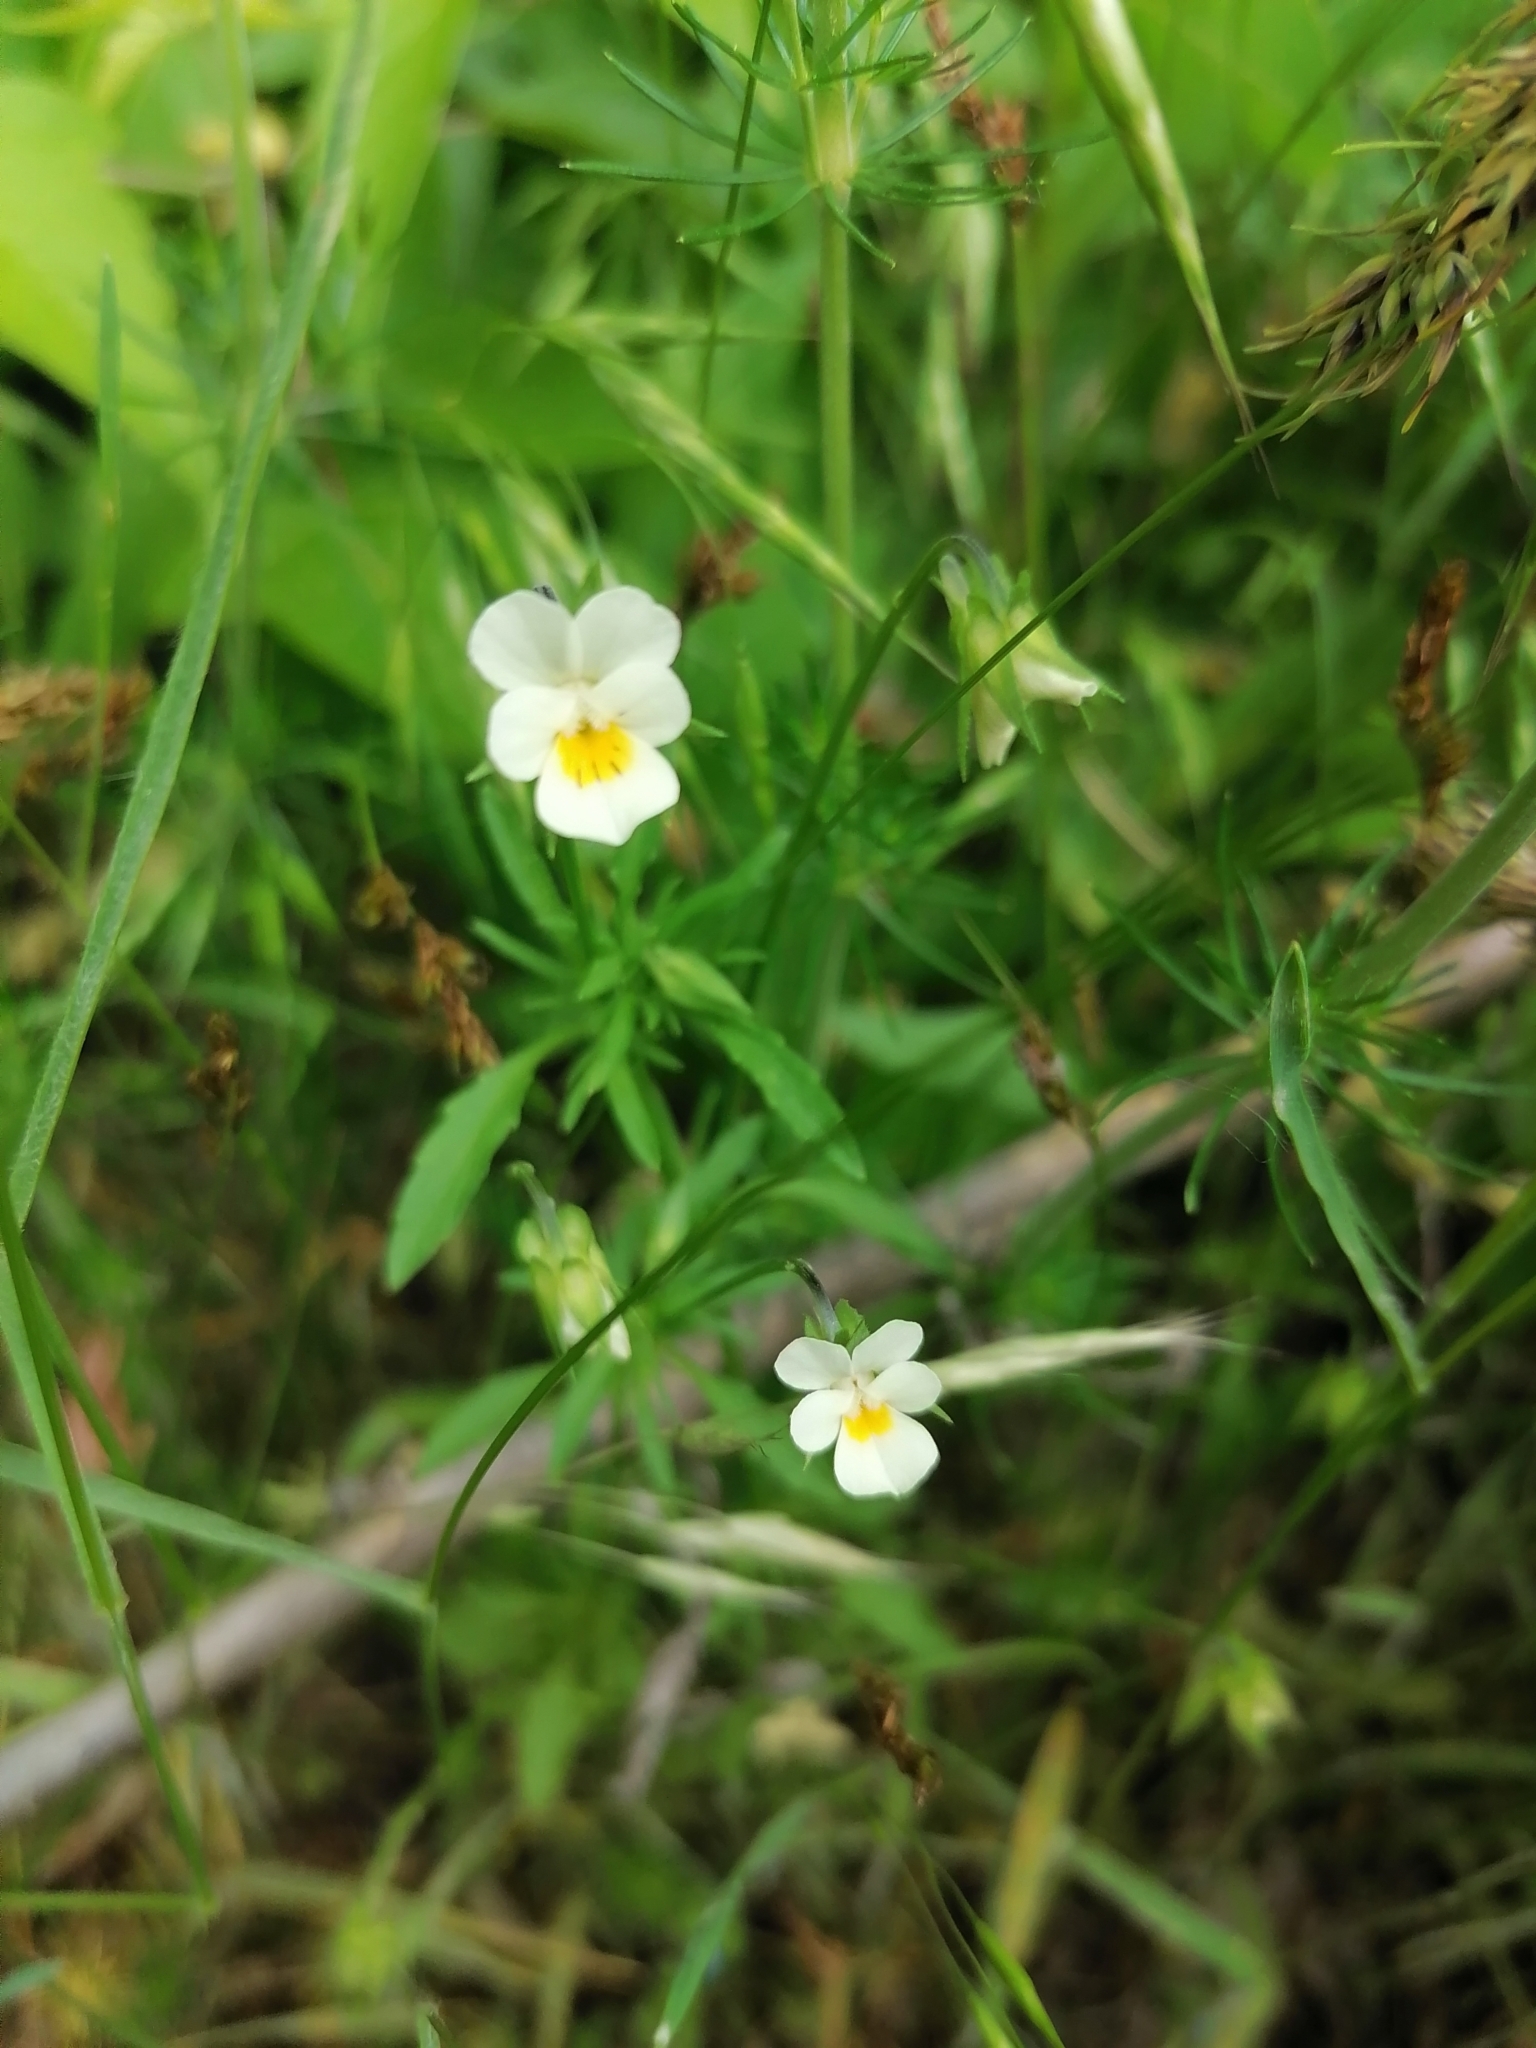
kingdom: Plantae
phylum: Tracheophyta
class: Magnoliopsida
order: Malpighiales
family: Violaceae
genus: Viola
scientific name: Viola arvensis
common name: Field pansy
